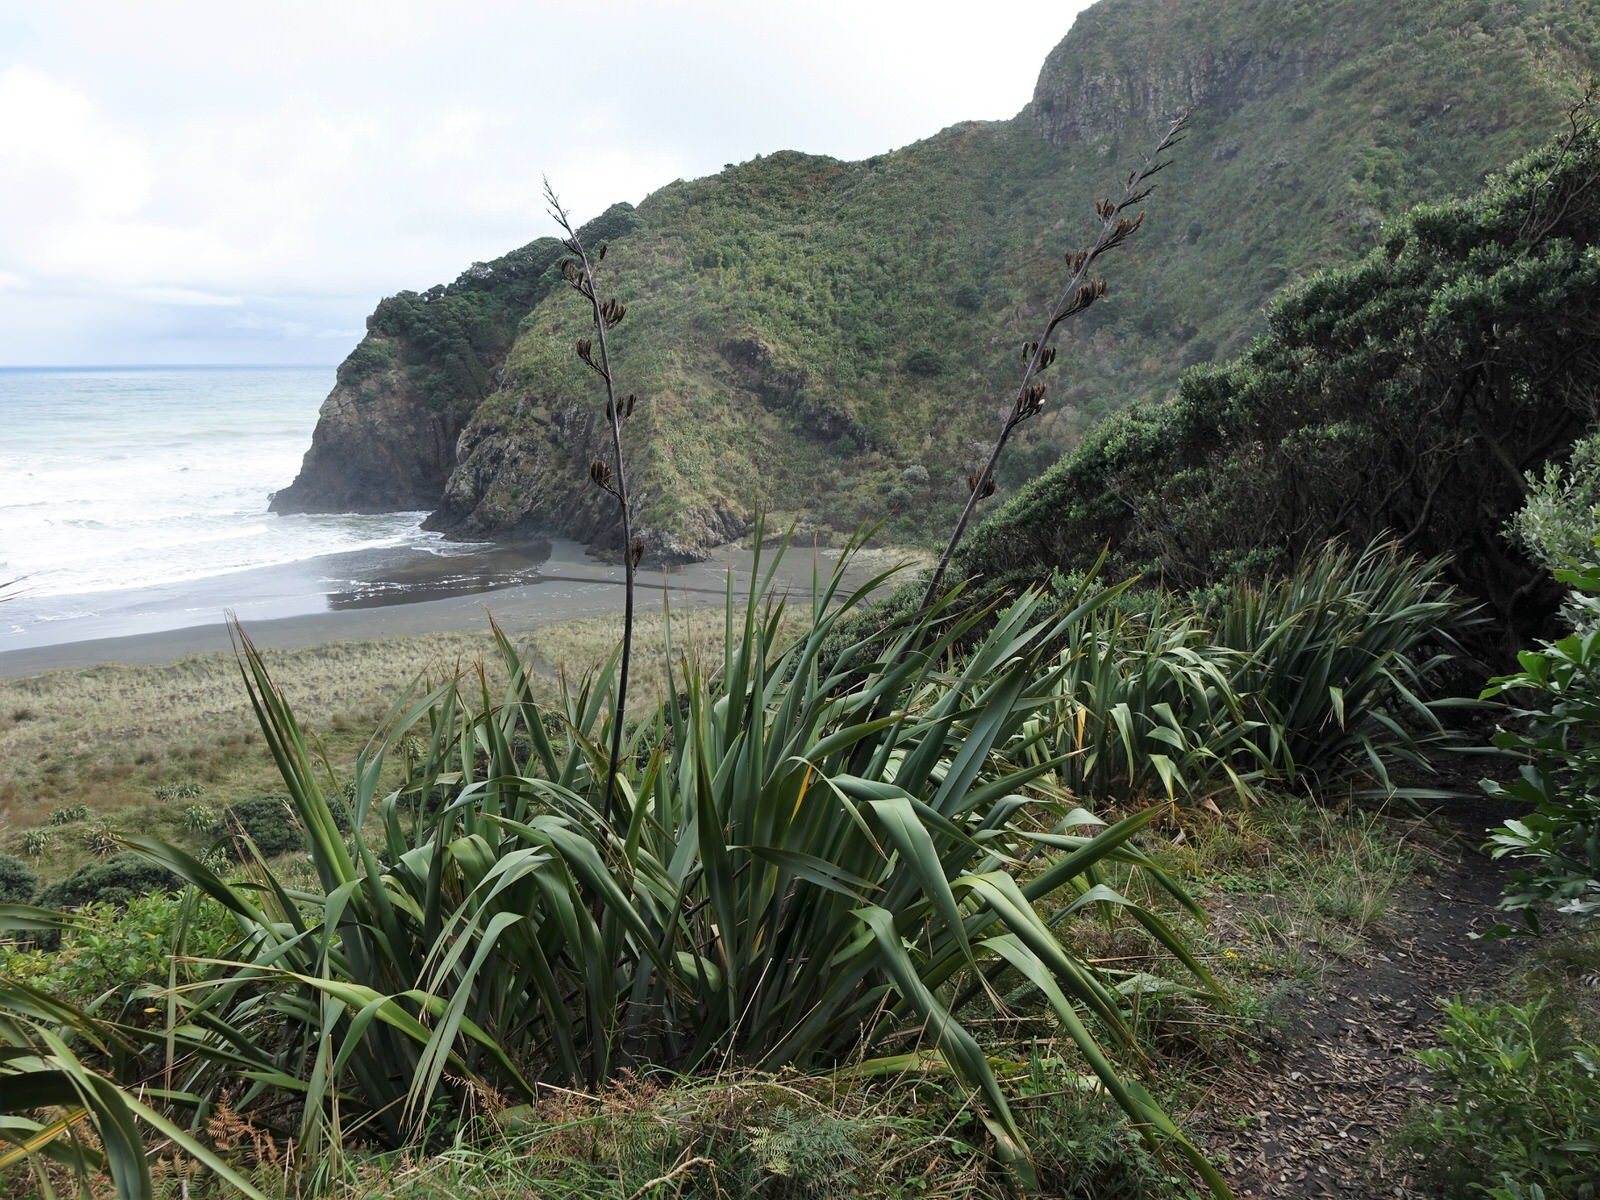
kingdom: Plantae
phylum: Tracheophyta
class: Liliopsida
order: Asparagales
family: Asphodelaceae
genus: Phormium
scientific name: Phormium tenax
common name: New zealand flax
